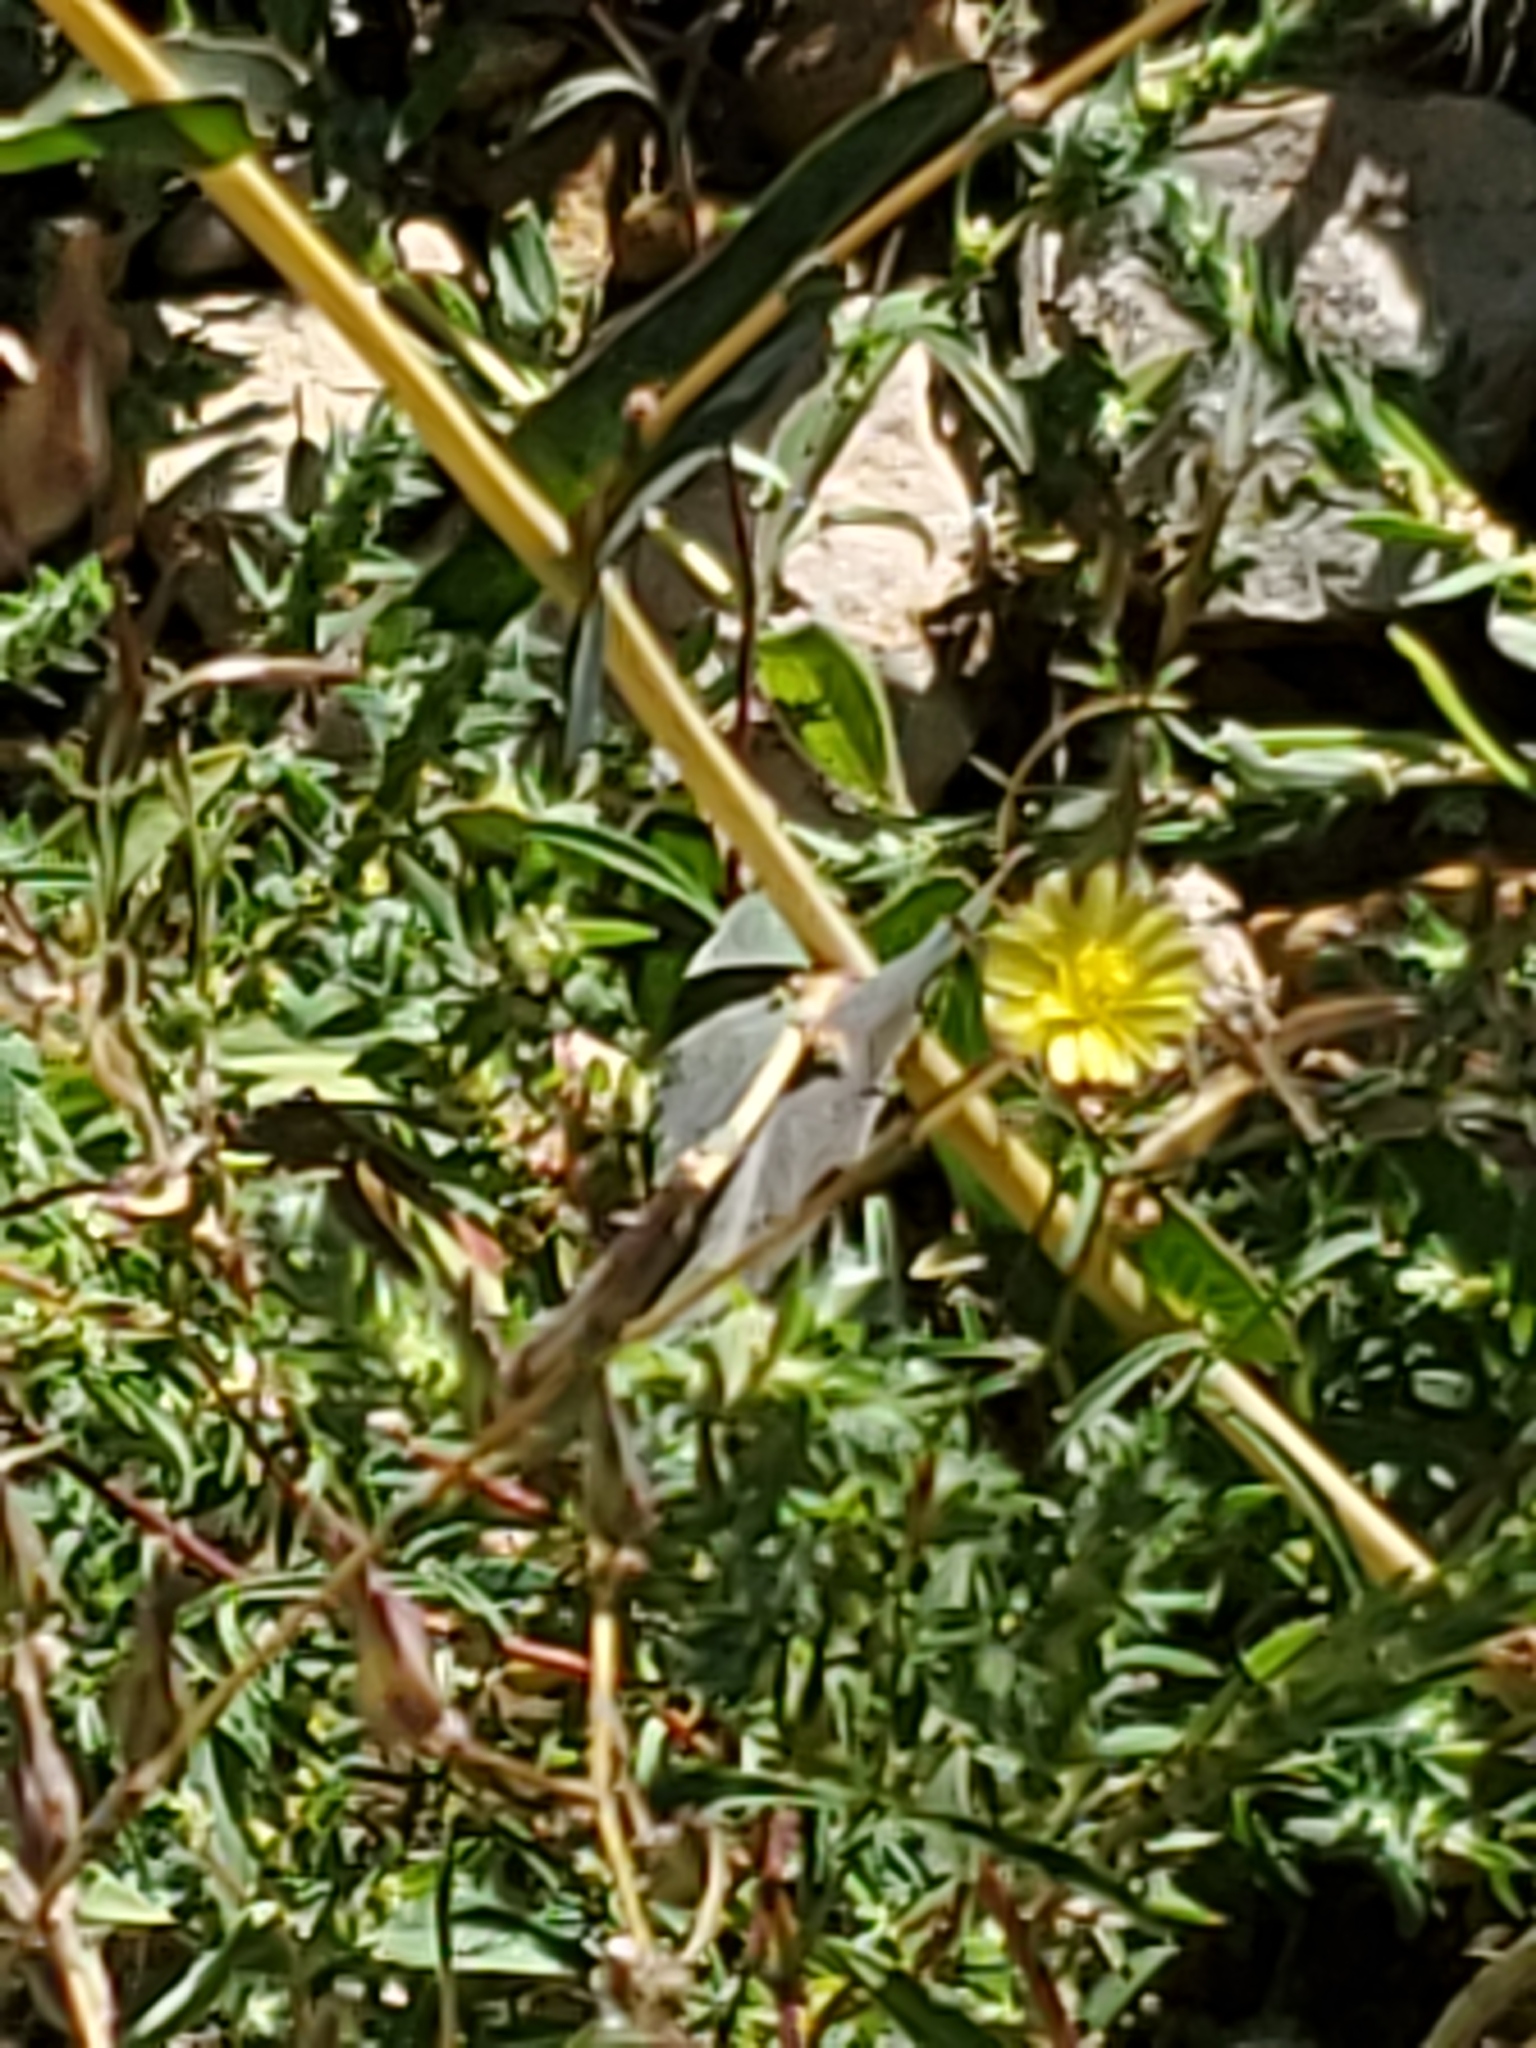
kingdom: Plantae
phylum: Tracheophyta
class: Magnoliopsida
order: Asterales
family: Asteraceae
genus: Lactuca
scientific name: Lactuca serriola
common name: Prickly lettuce
